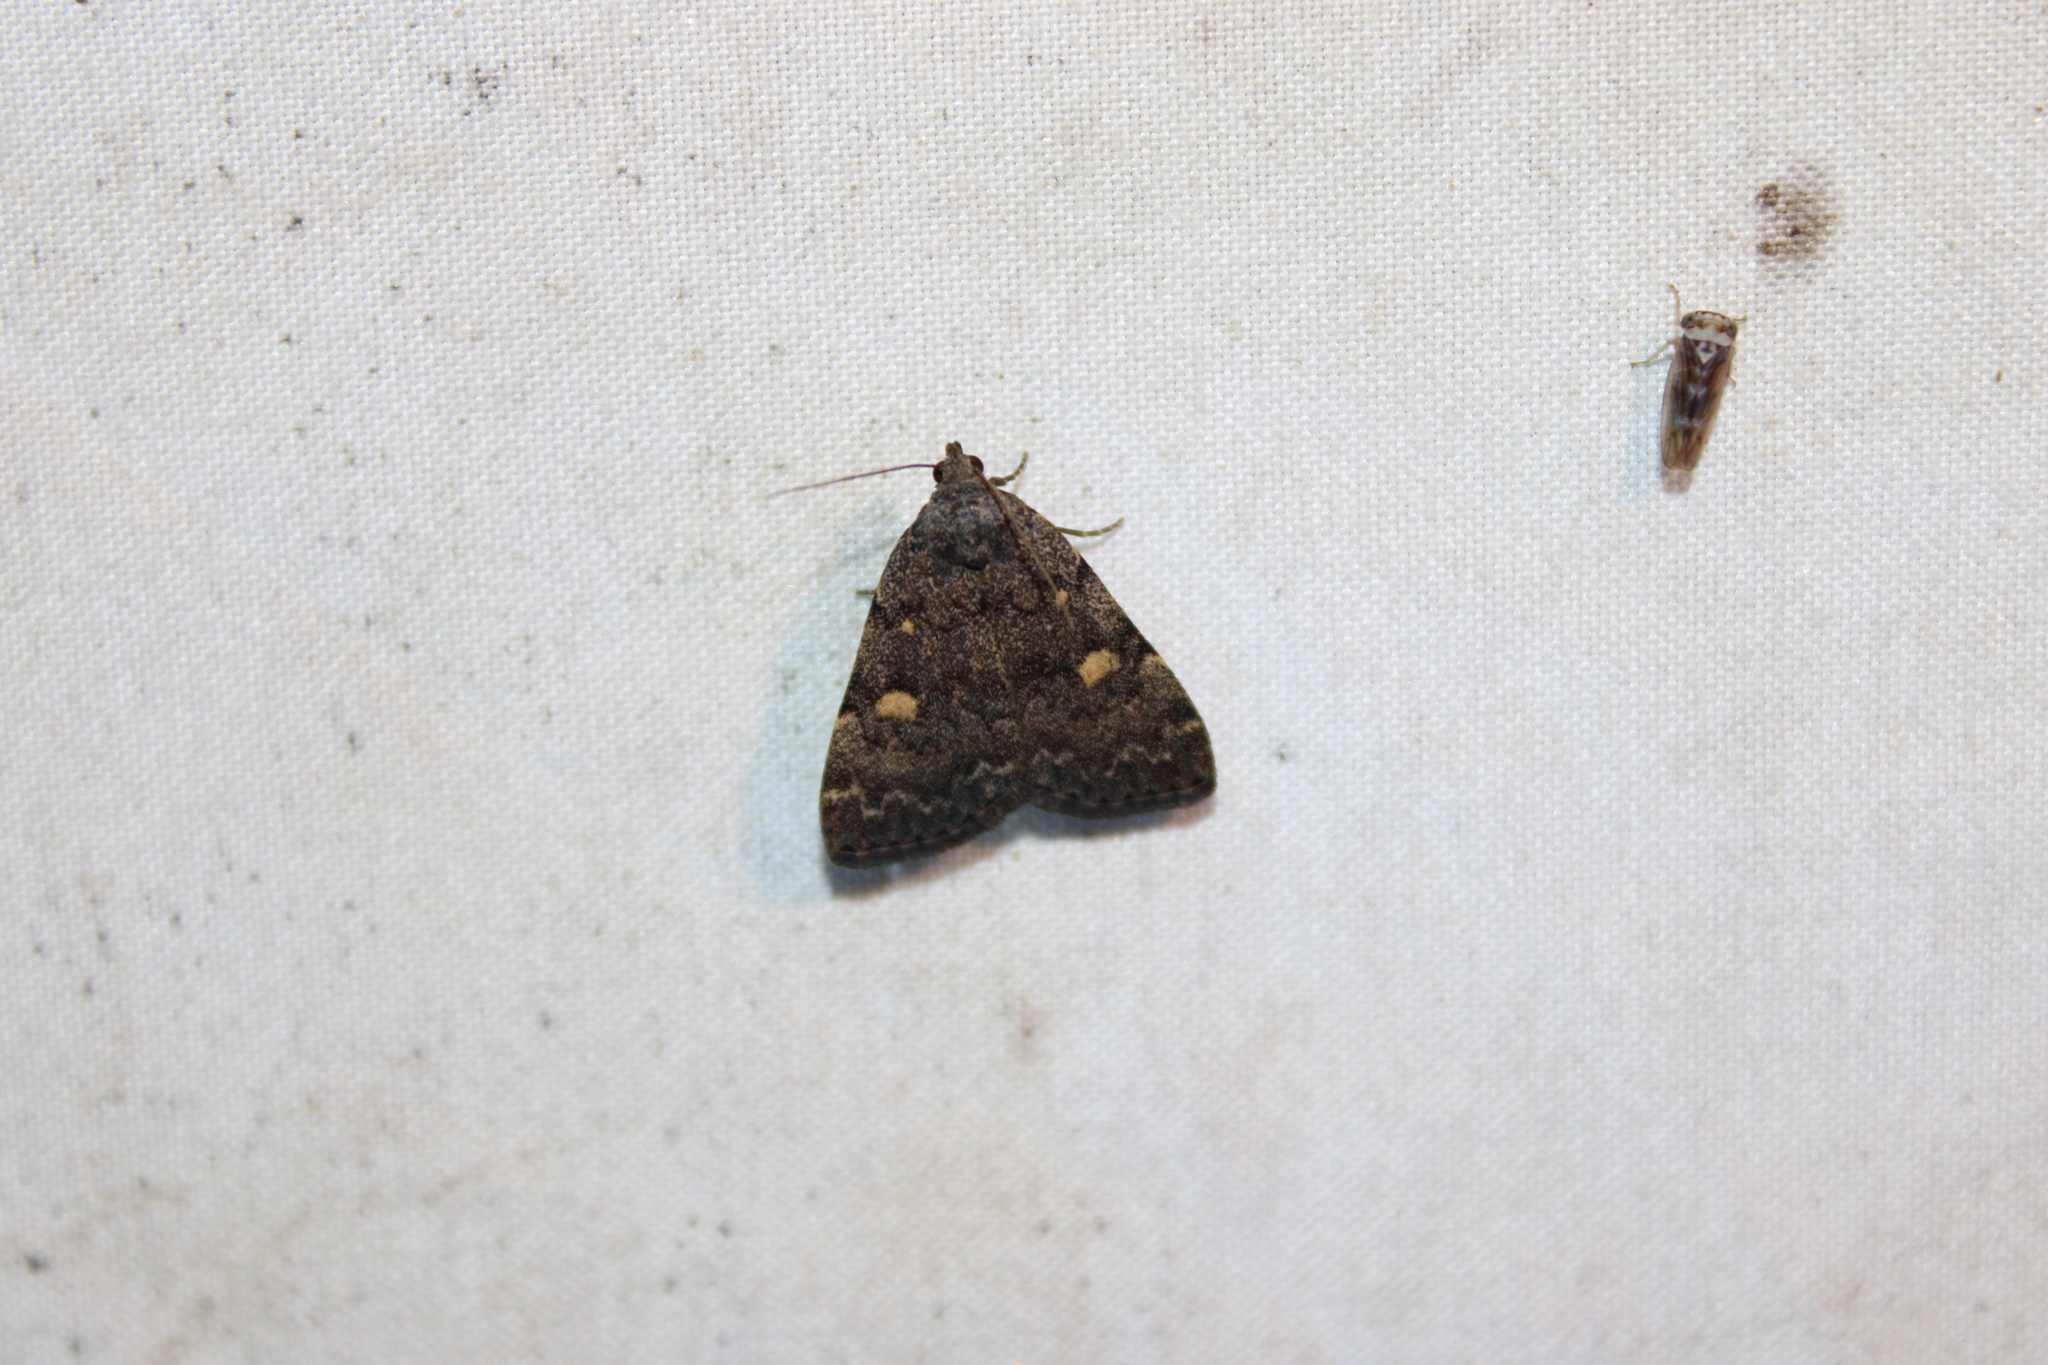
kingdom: Animalia
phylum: Arthropoda
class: Insecta
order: Lepidoptera
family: Erebidae
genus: Idia
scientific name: Idia aemula
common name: Common idia moth
